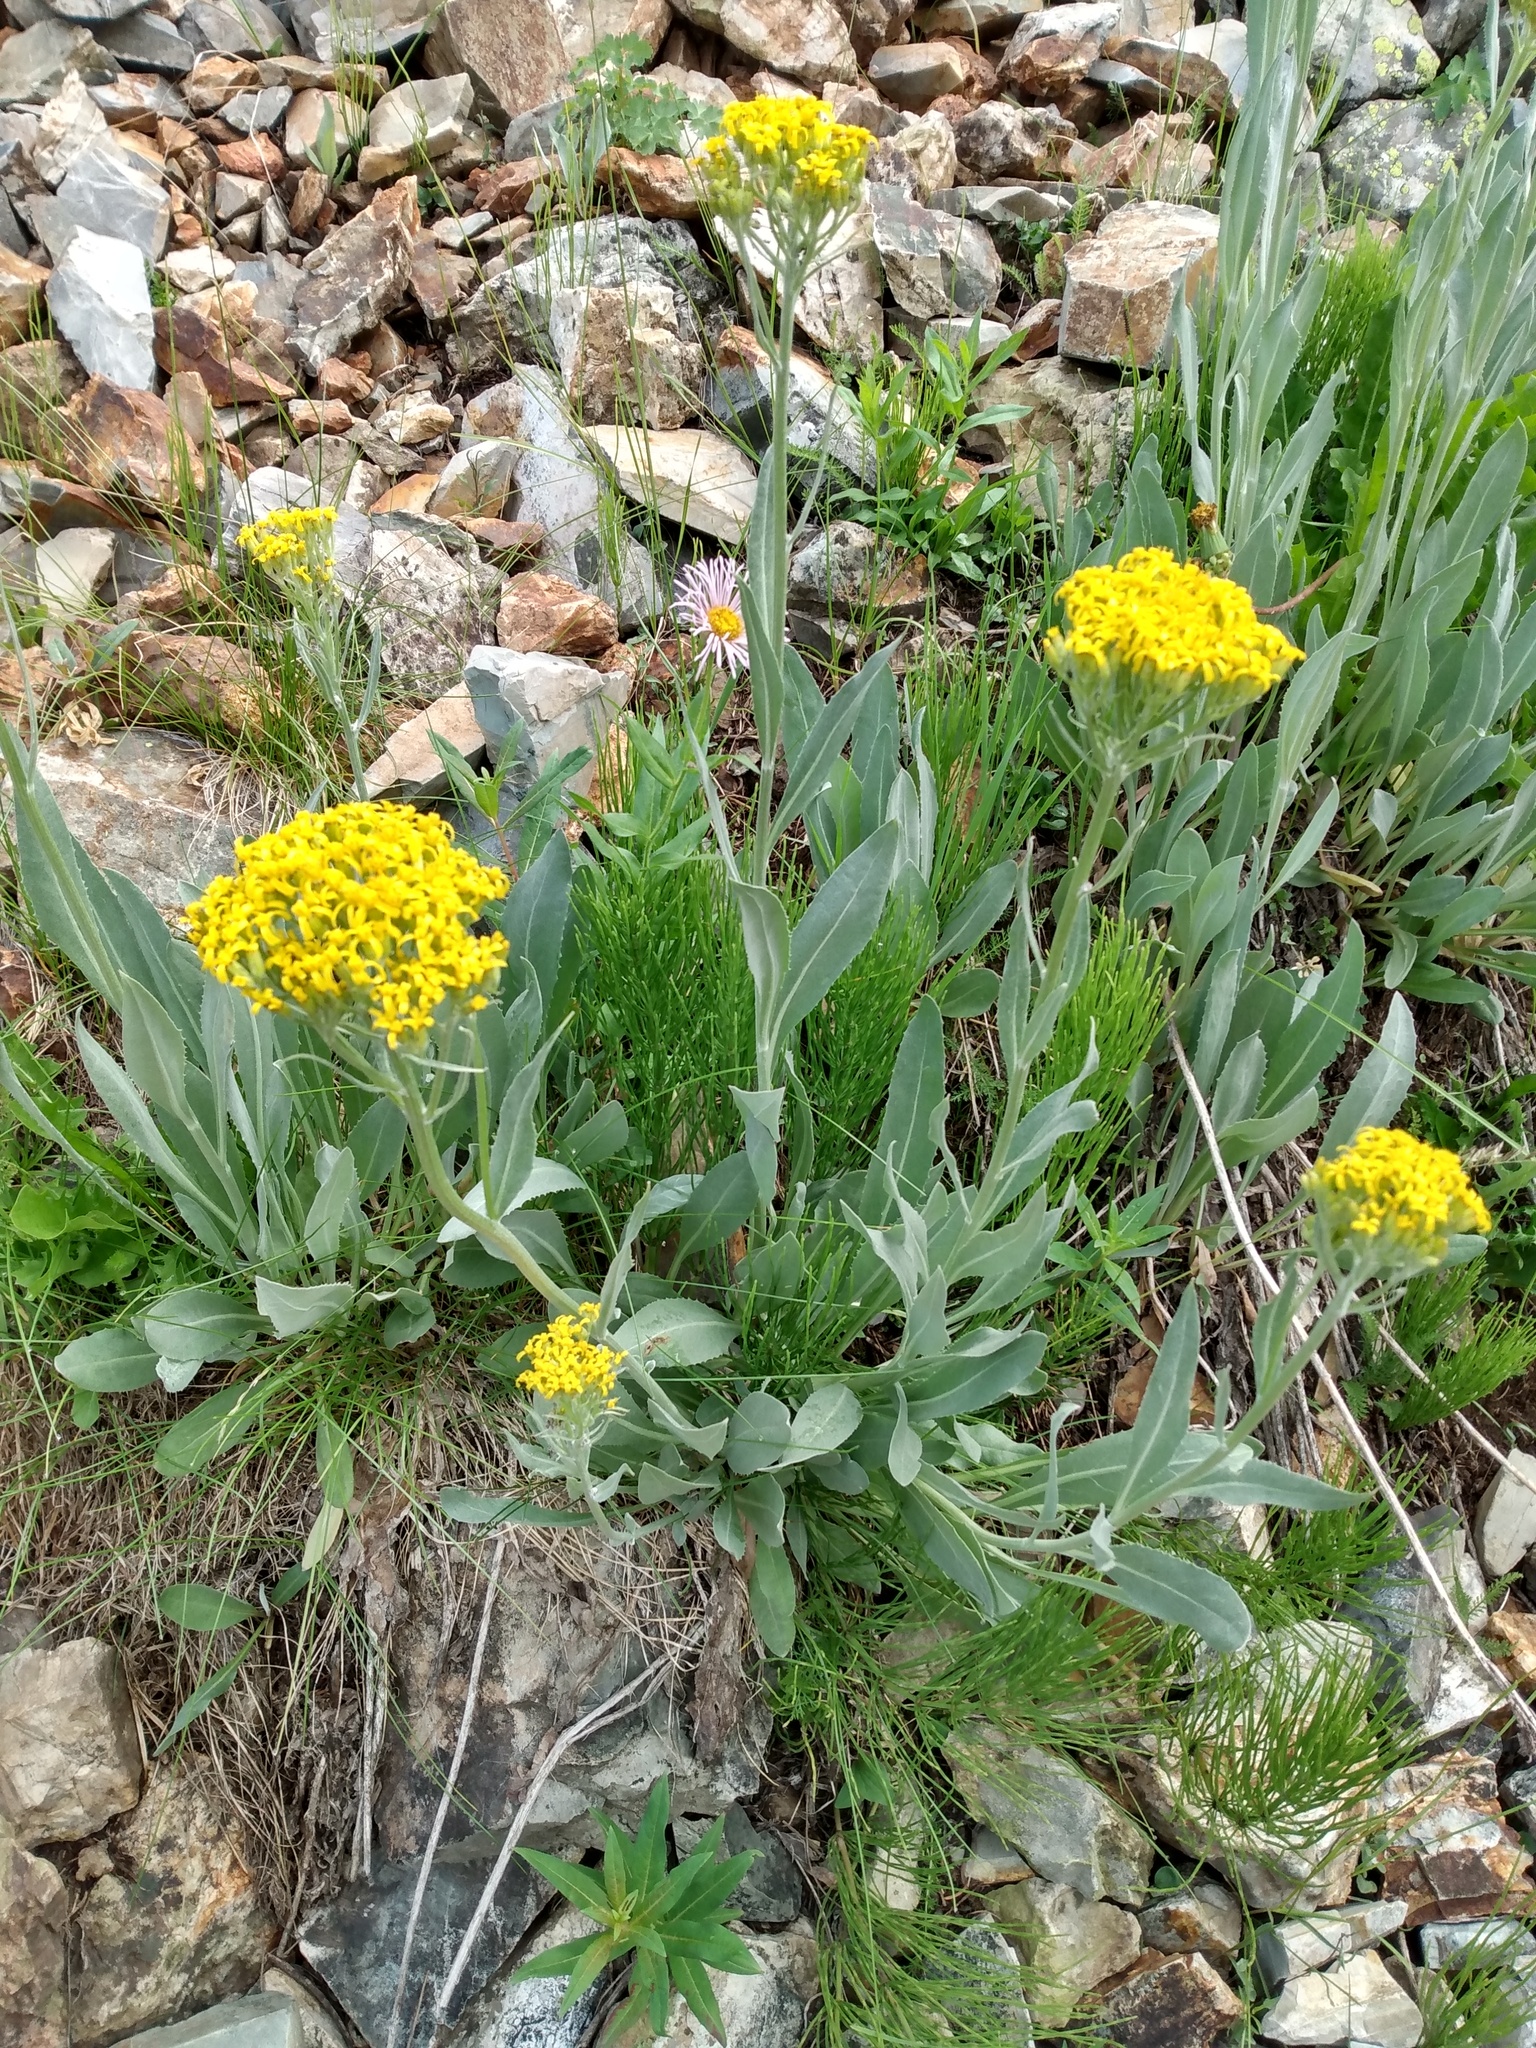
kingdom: Plantae
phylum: Tracheophyta
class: Magnoliopsida
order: Asterales
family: Asteraceae
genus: Senecio
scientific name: Senecio atratus
